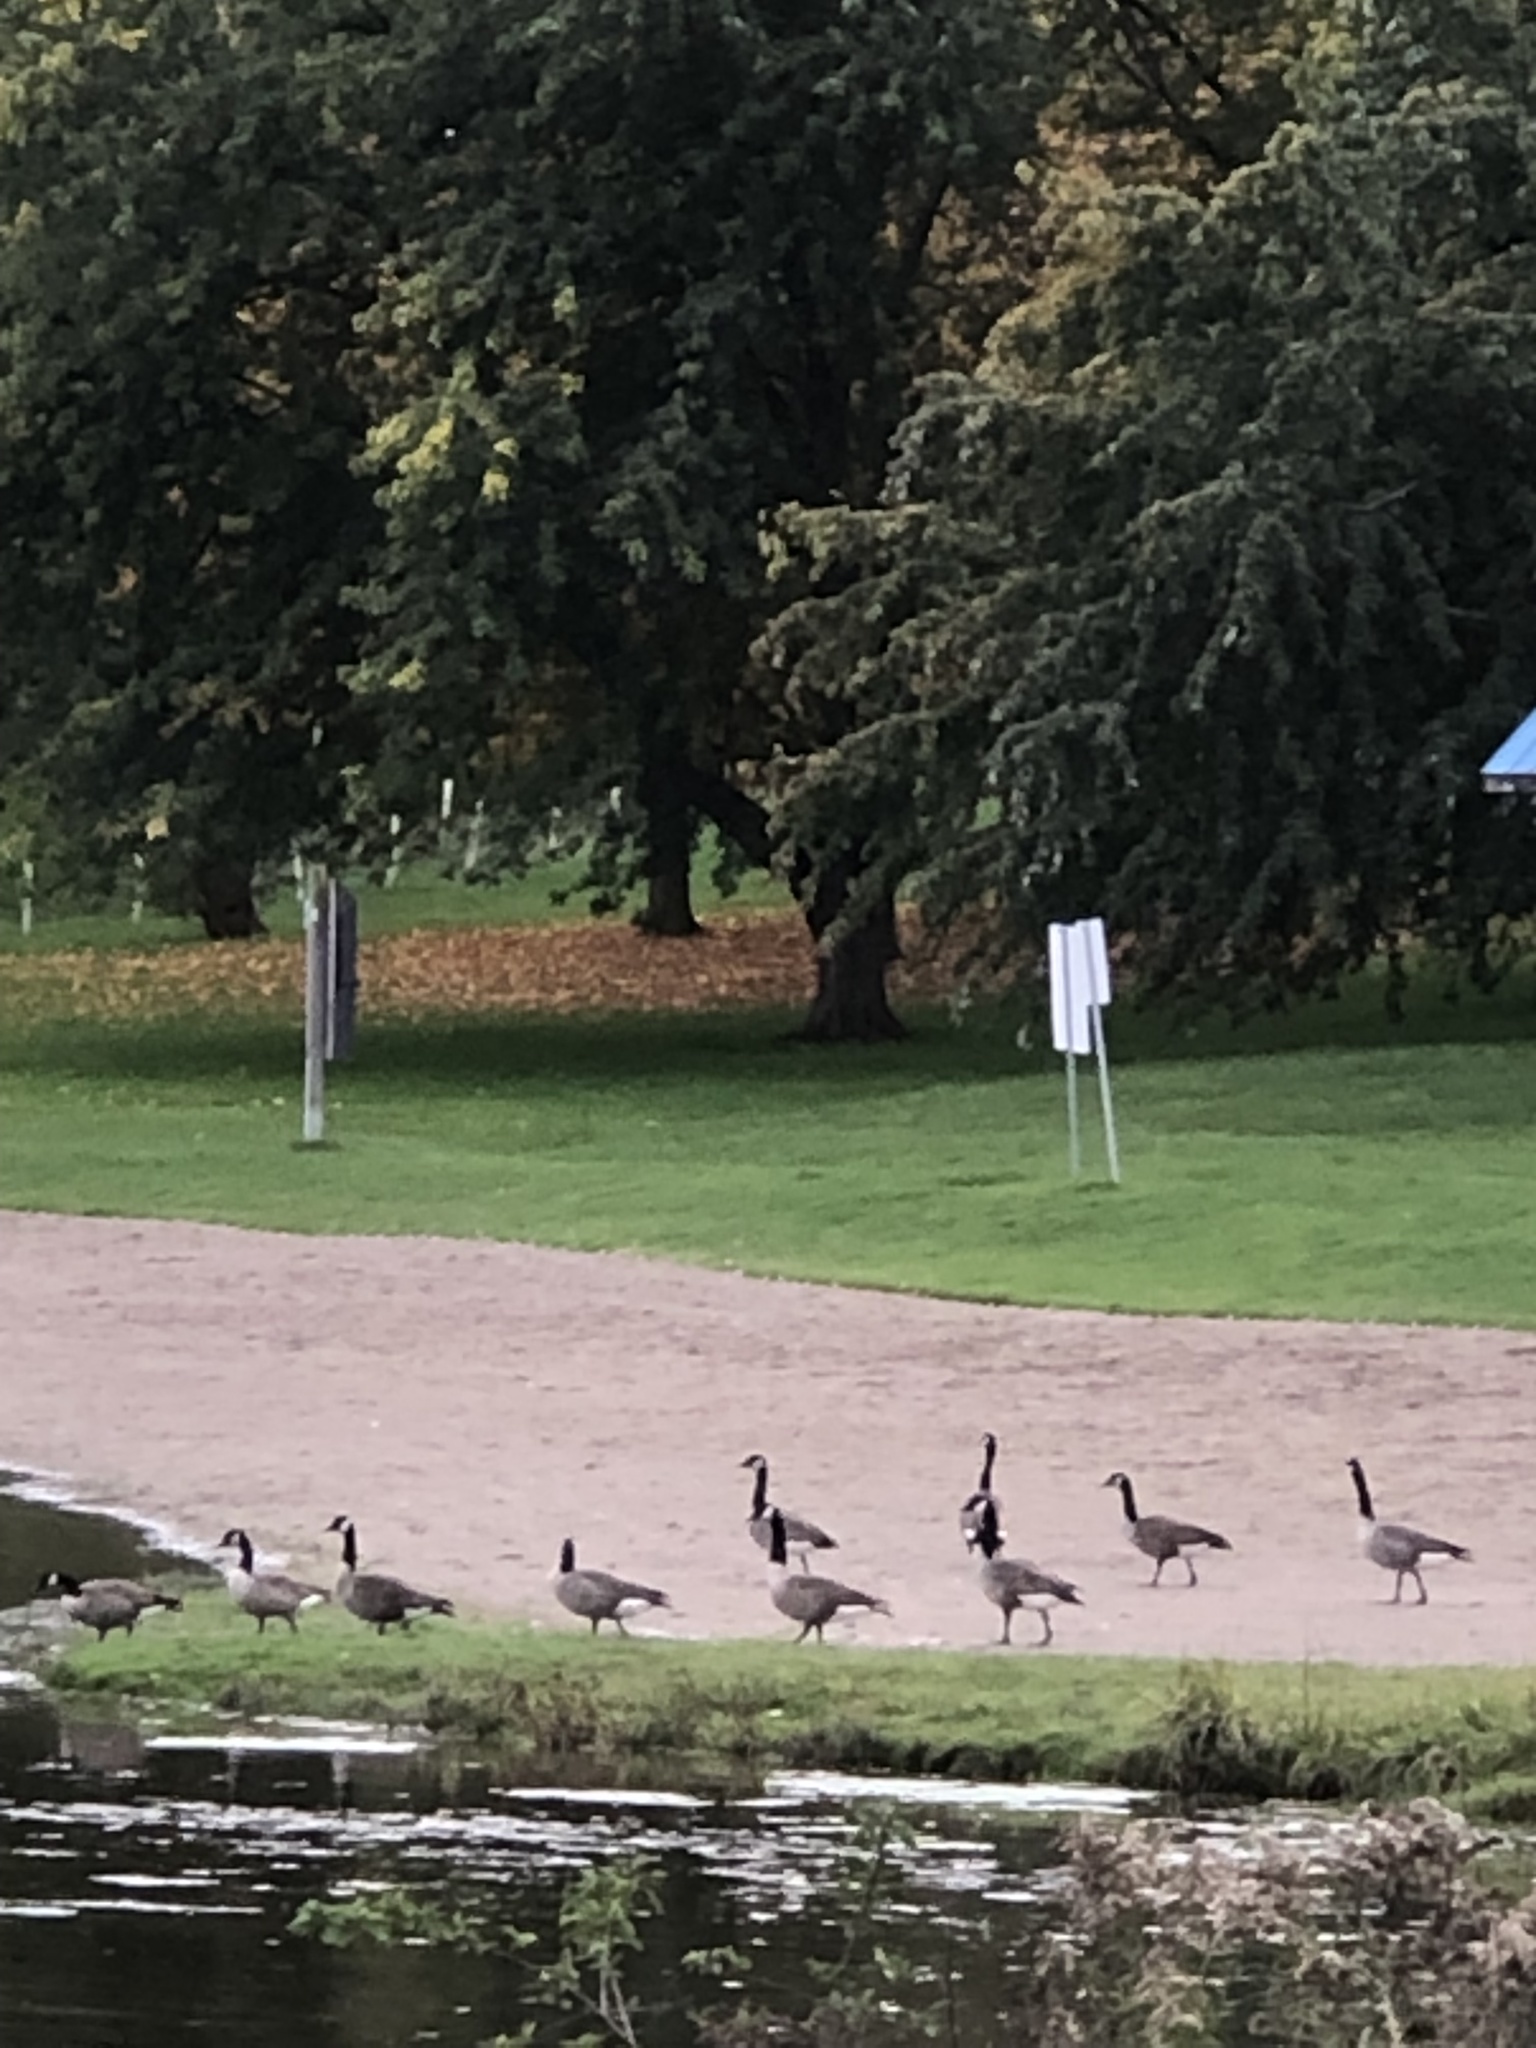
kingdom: Animalia
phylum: Chordata
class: Aves
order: Anseriformes
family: Anatidae
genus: Branta
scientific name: Branta canadensis
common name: Canada goose
